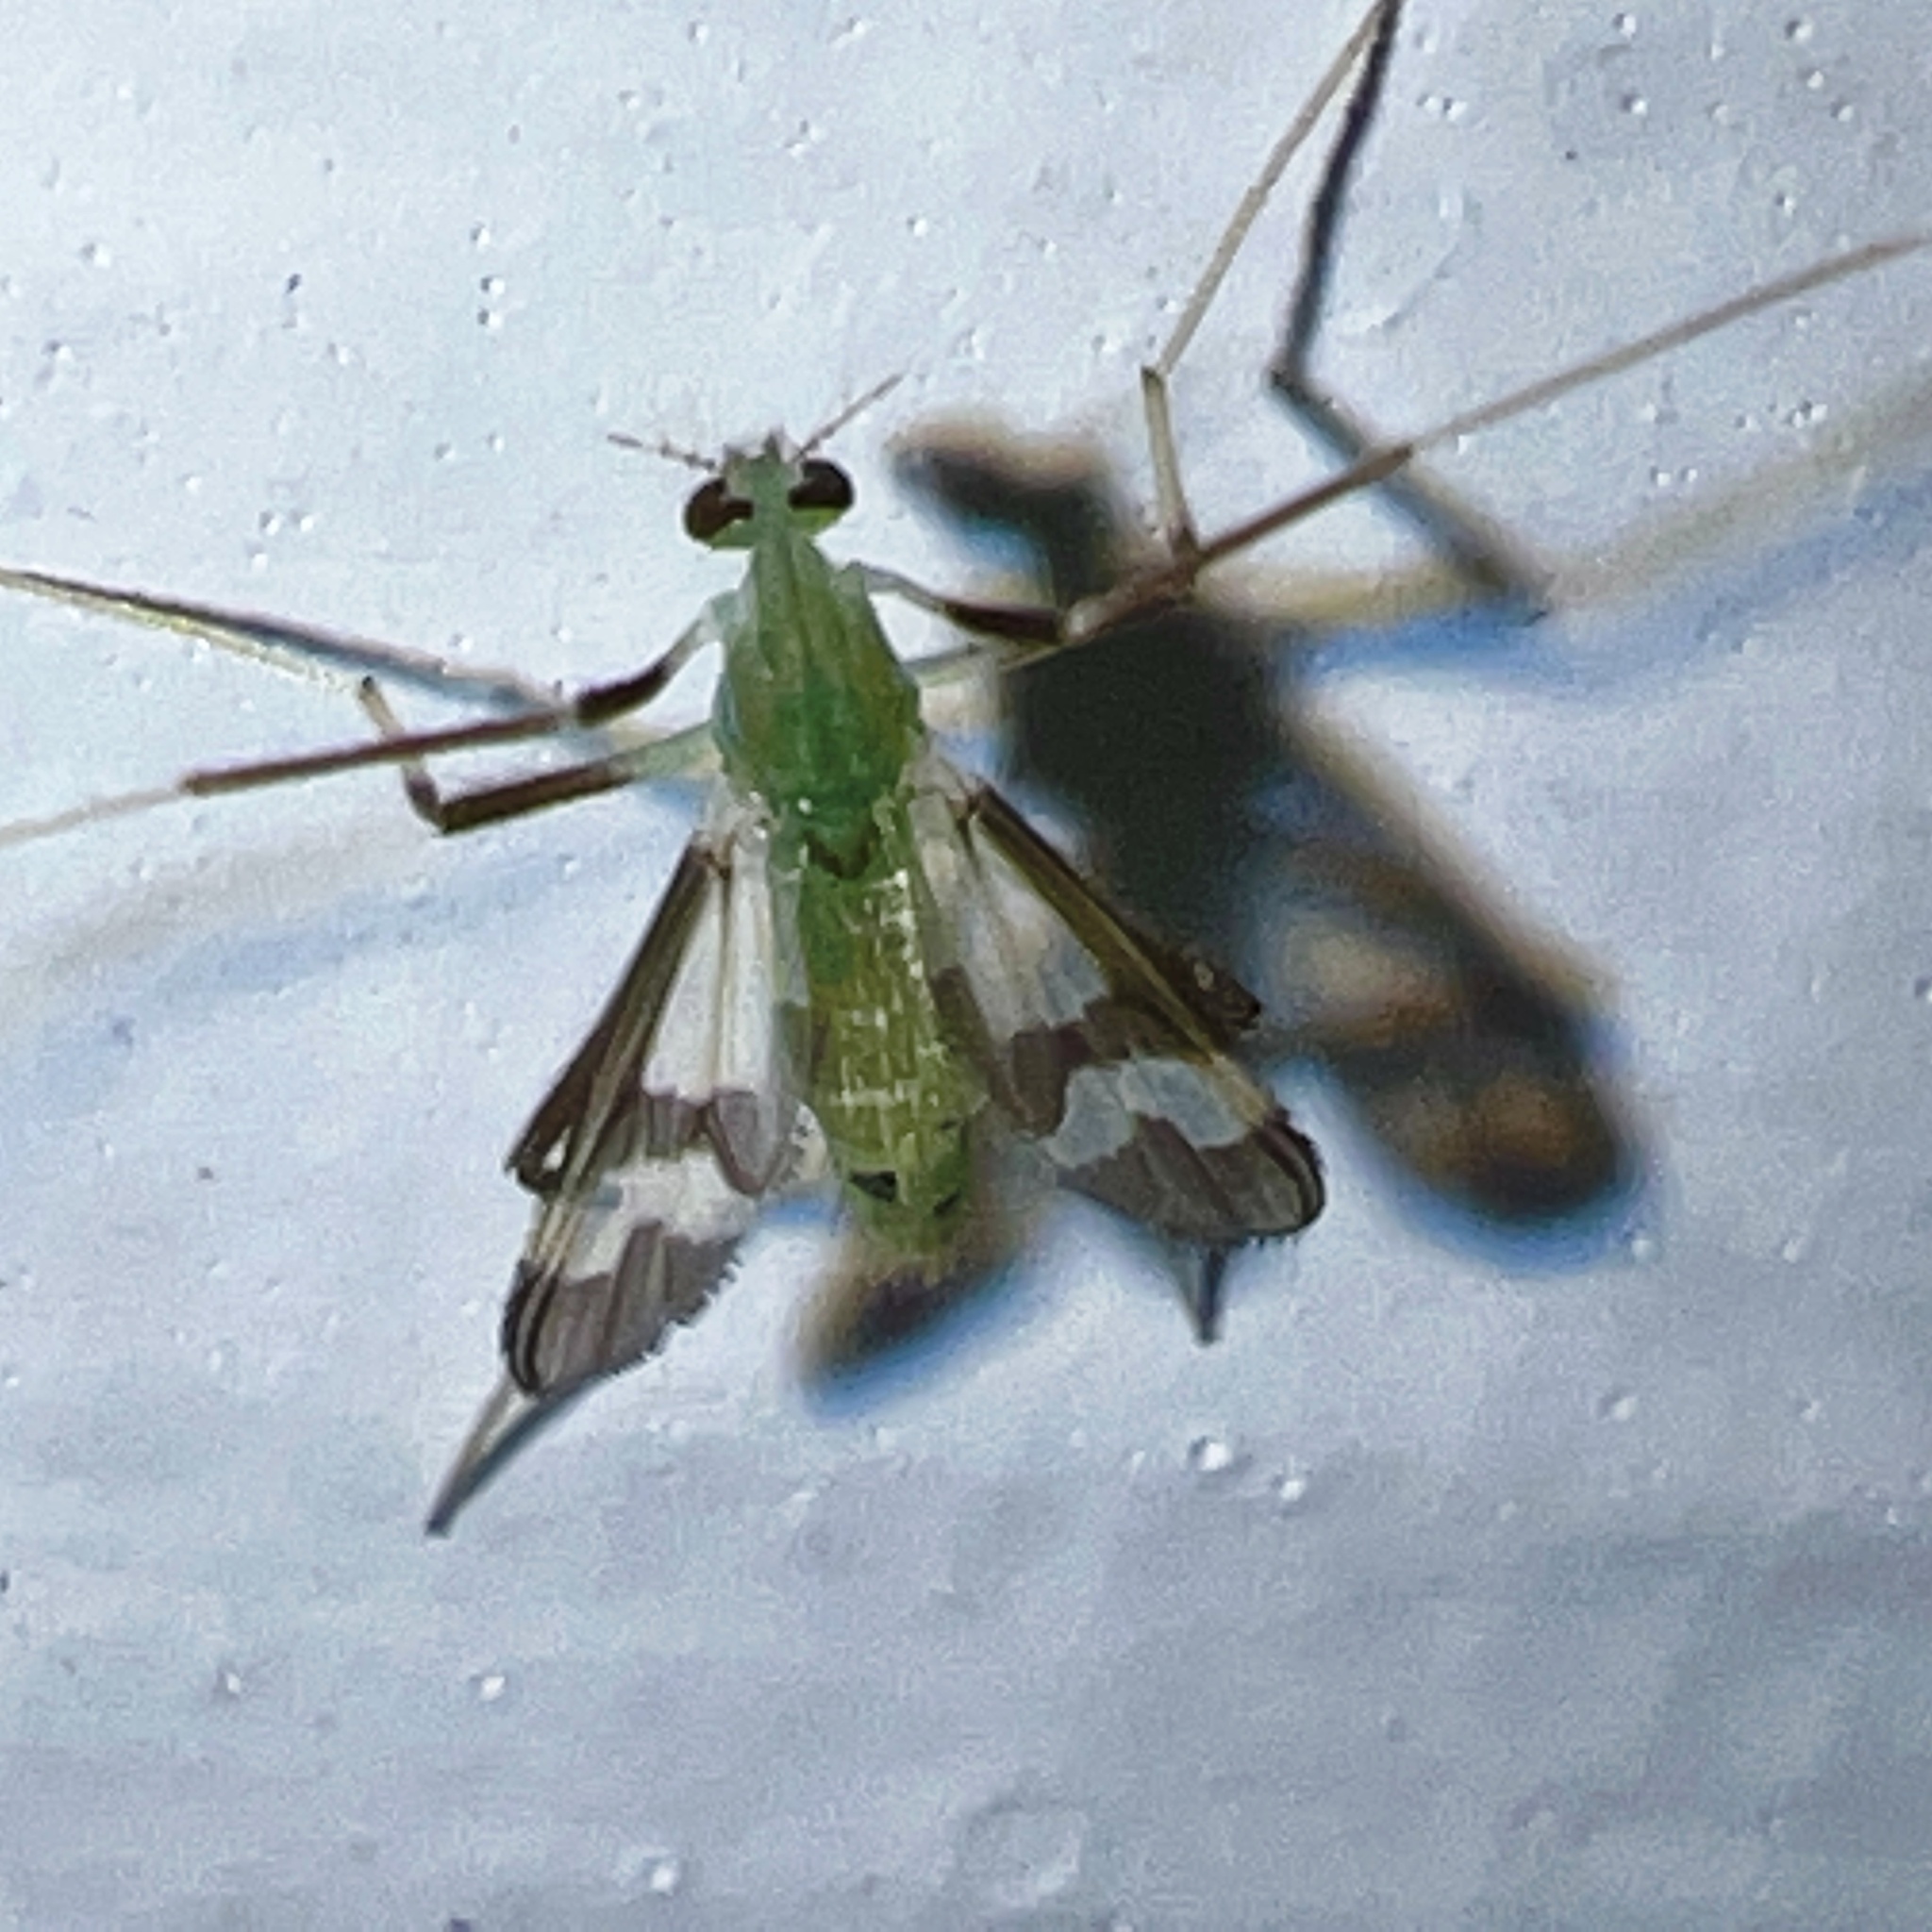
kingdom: Animalia
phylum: Arthropoda
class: Insecta
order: Diptera
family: Chironomidae
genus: Stenochironomus
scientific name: Stenochironomus hilaris
